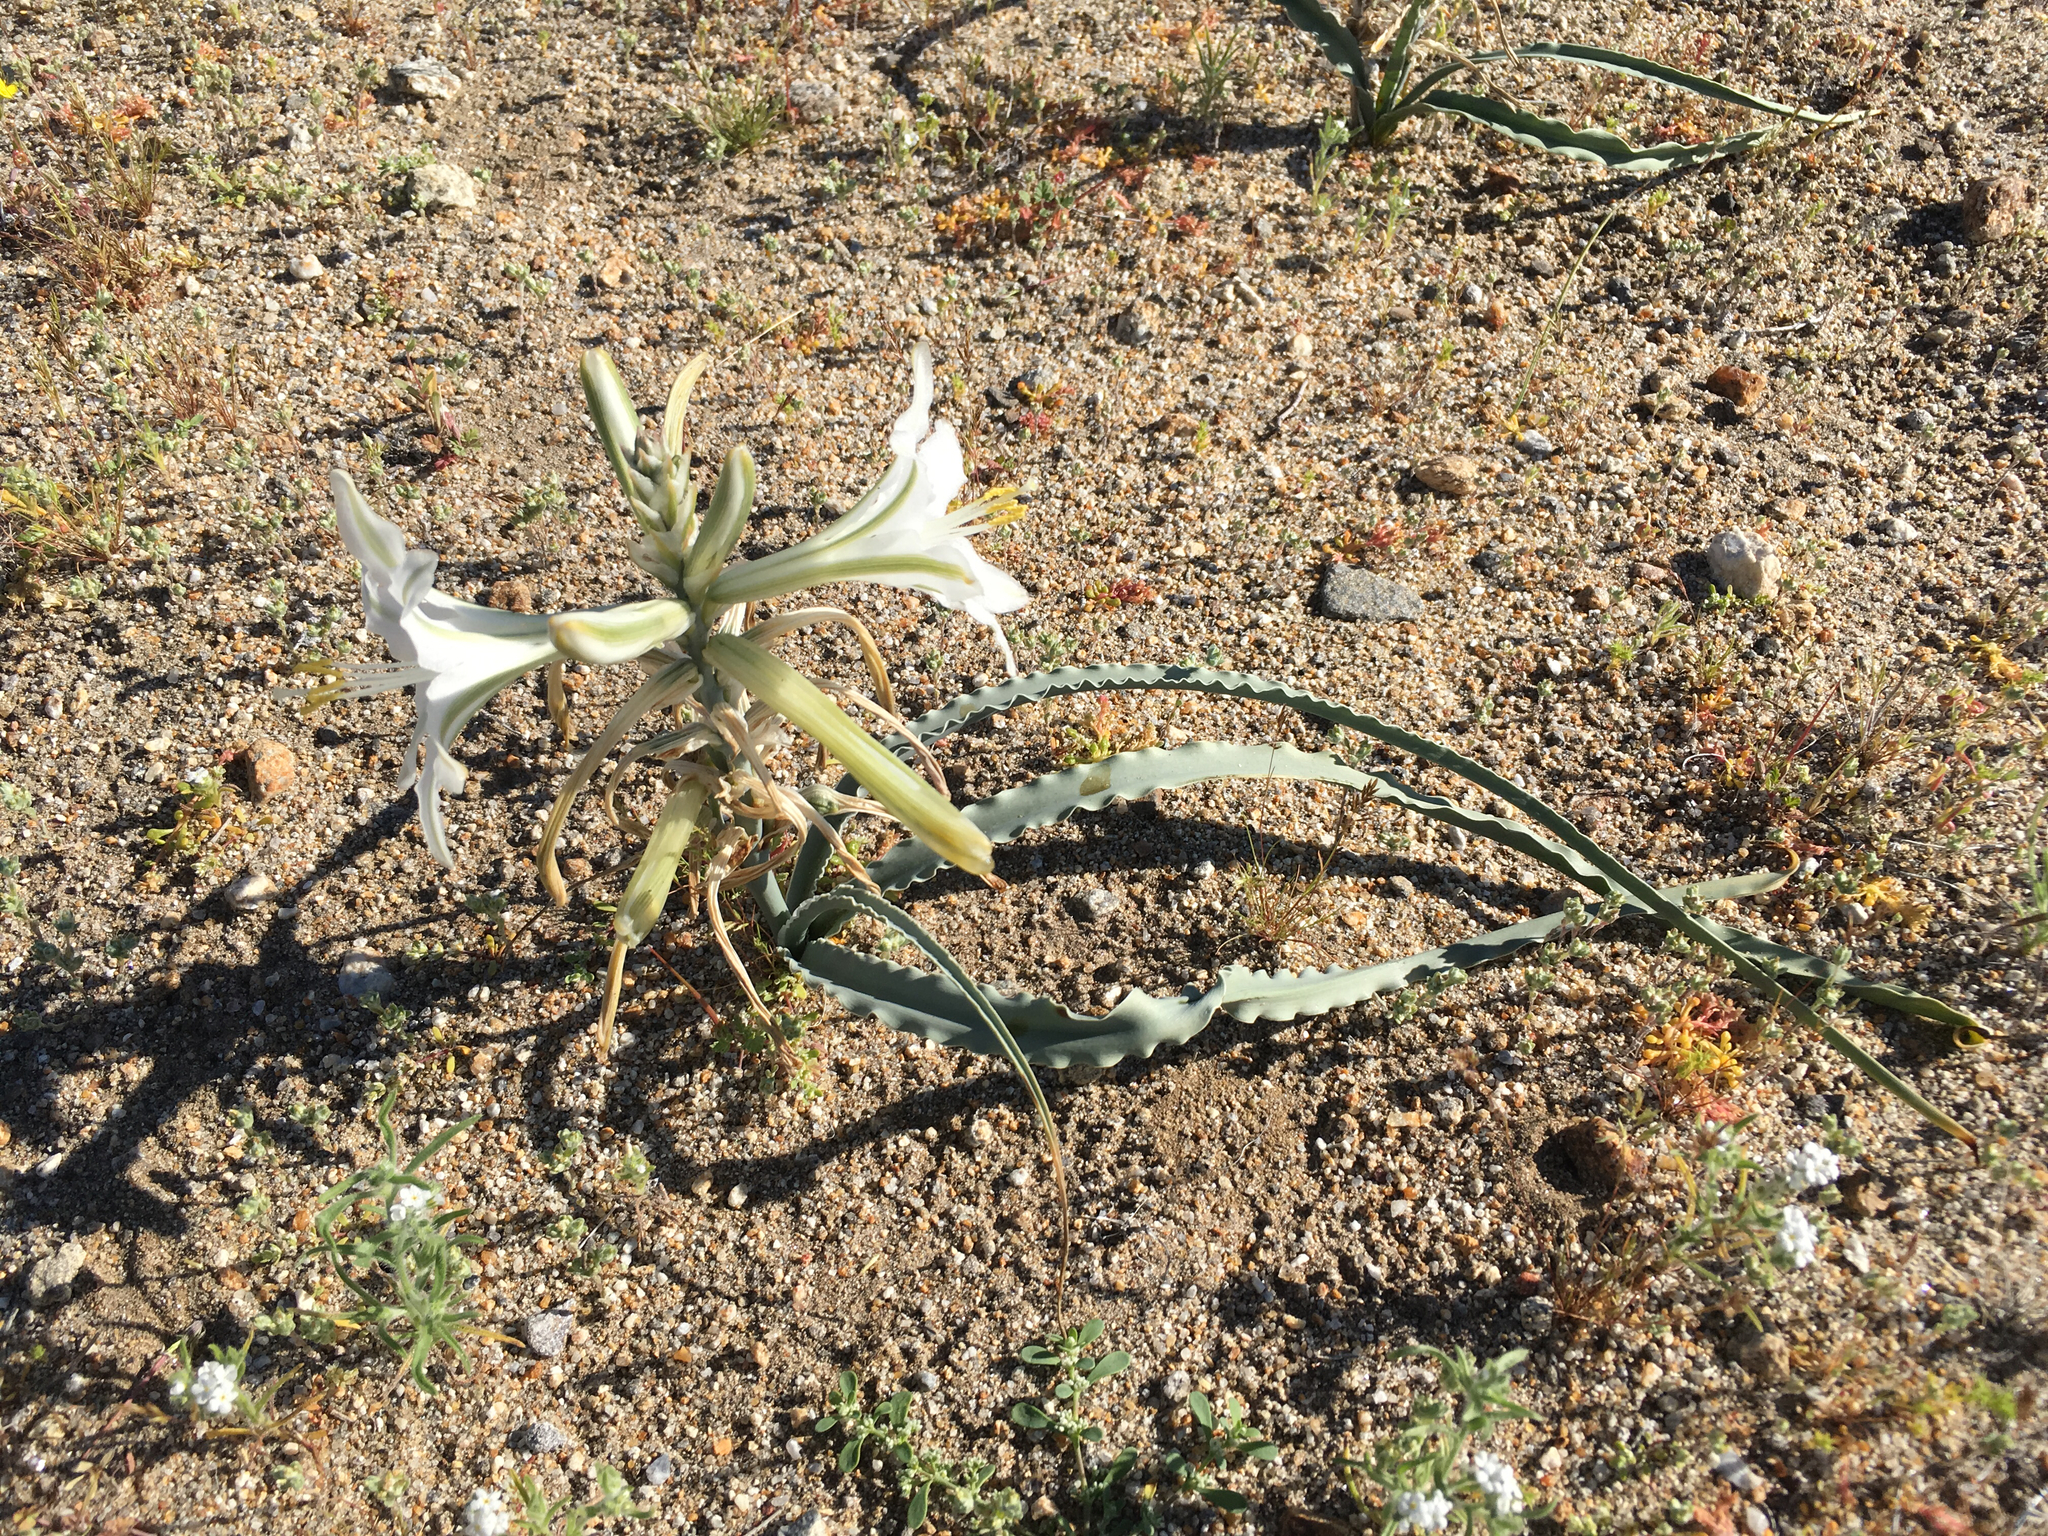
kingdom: Plantae
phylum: Tracheophyta
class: Liliopsida
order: Asparagales
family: Asparagaceae
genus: Hesperocallis
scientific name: Hesperocallis undulata
